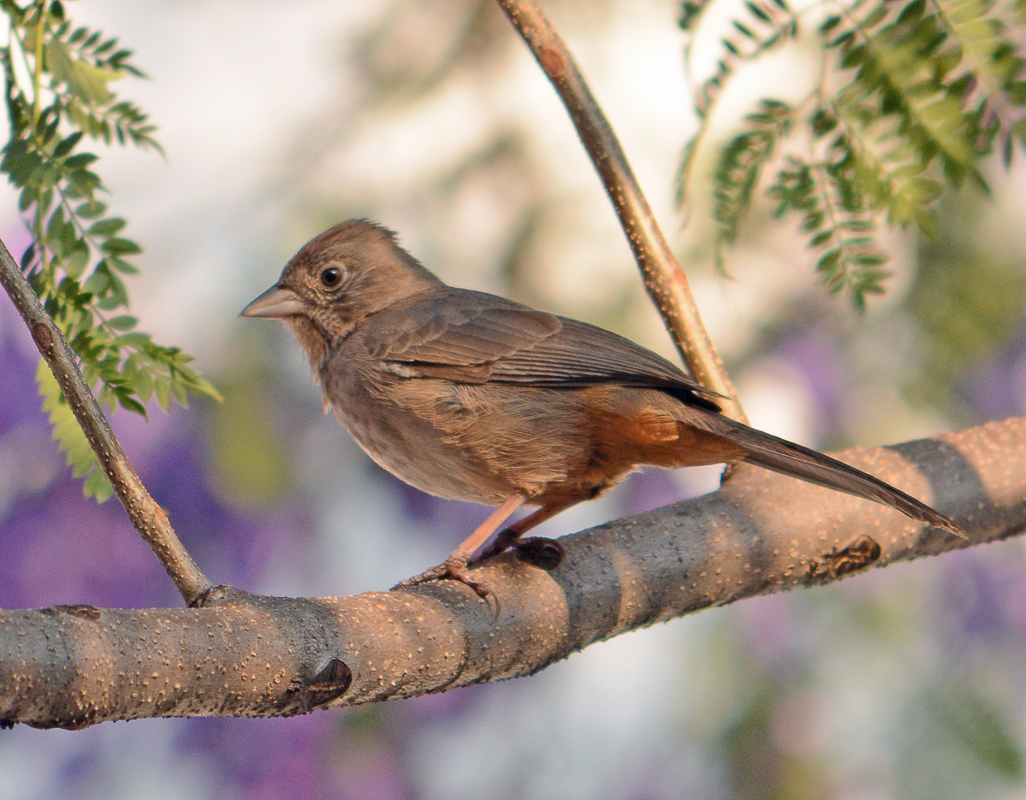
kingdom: Animalia
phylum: Chordata
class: Aves
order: Passeriformes
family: Passerellidae
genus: Melozone
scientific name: Melozone fusca
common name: Canyon towhee
